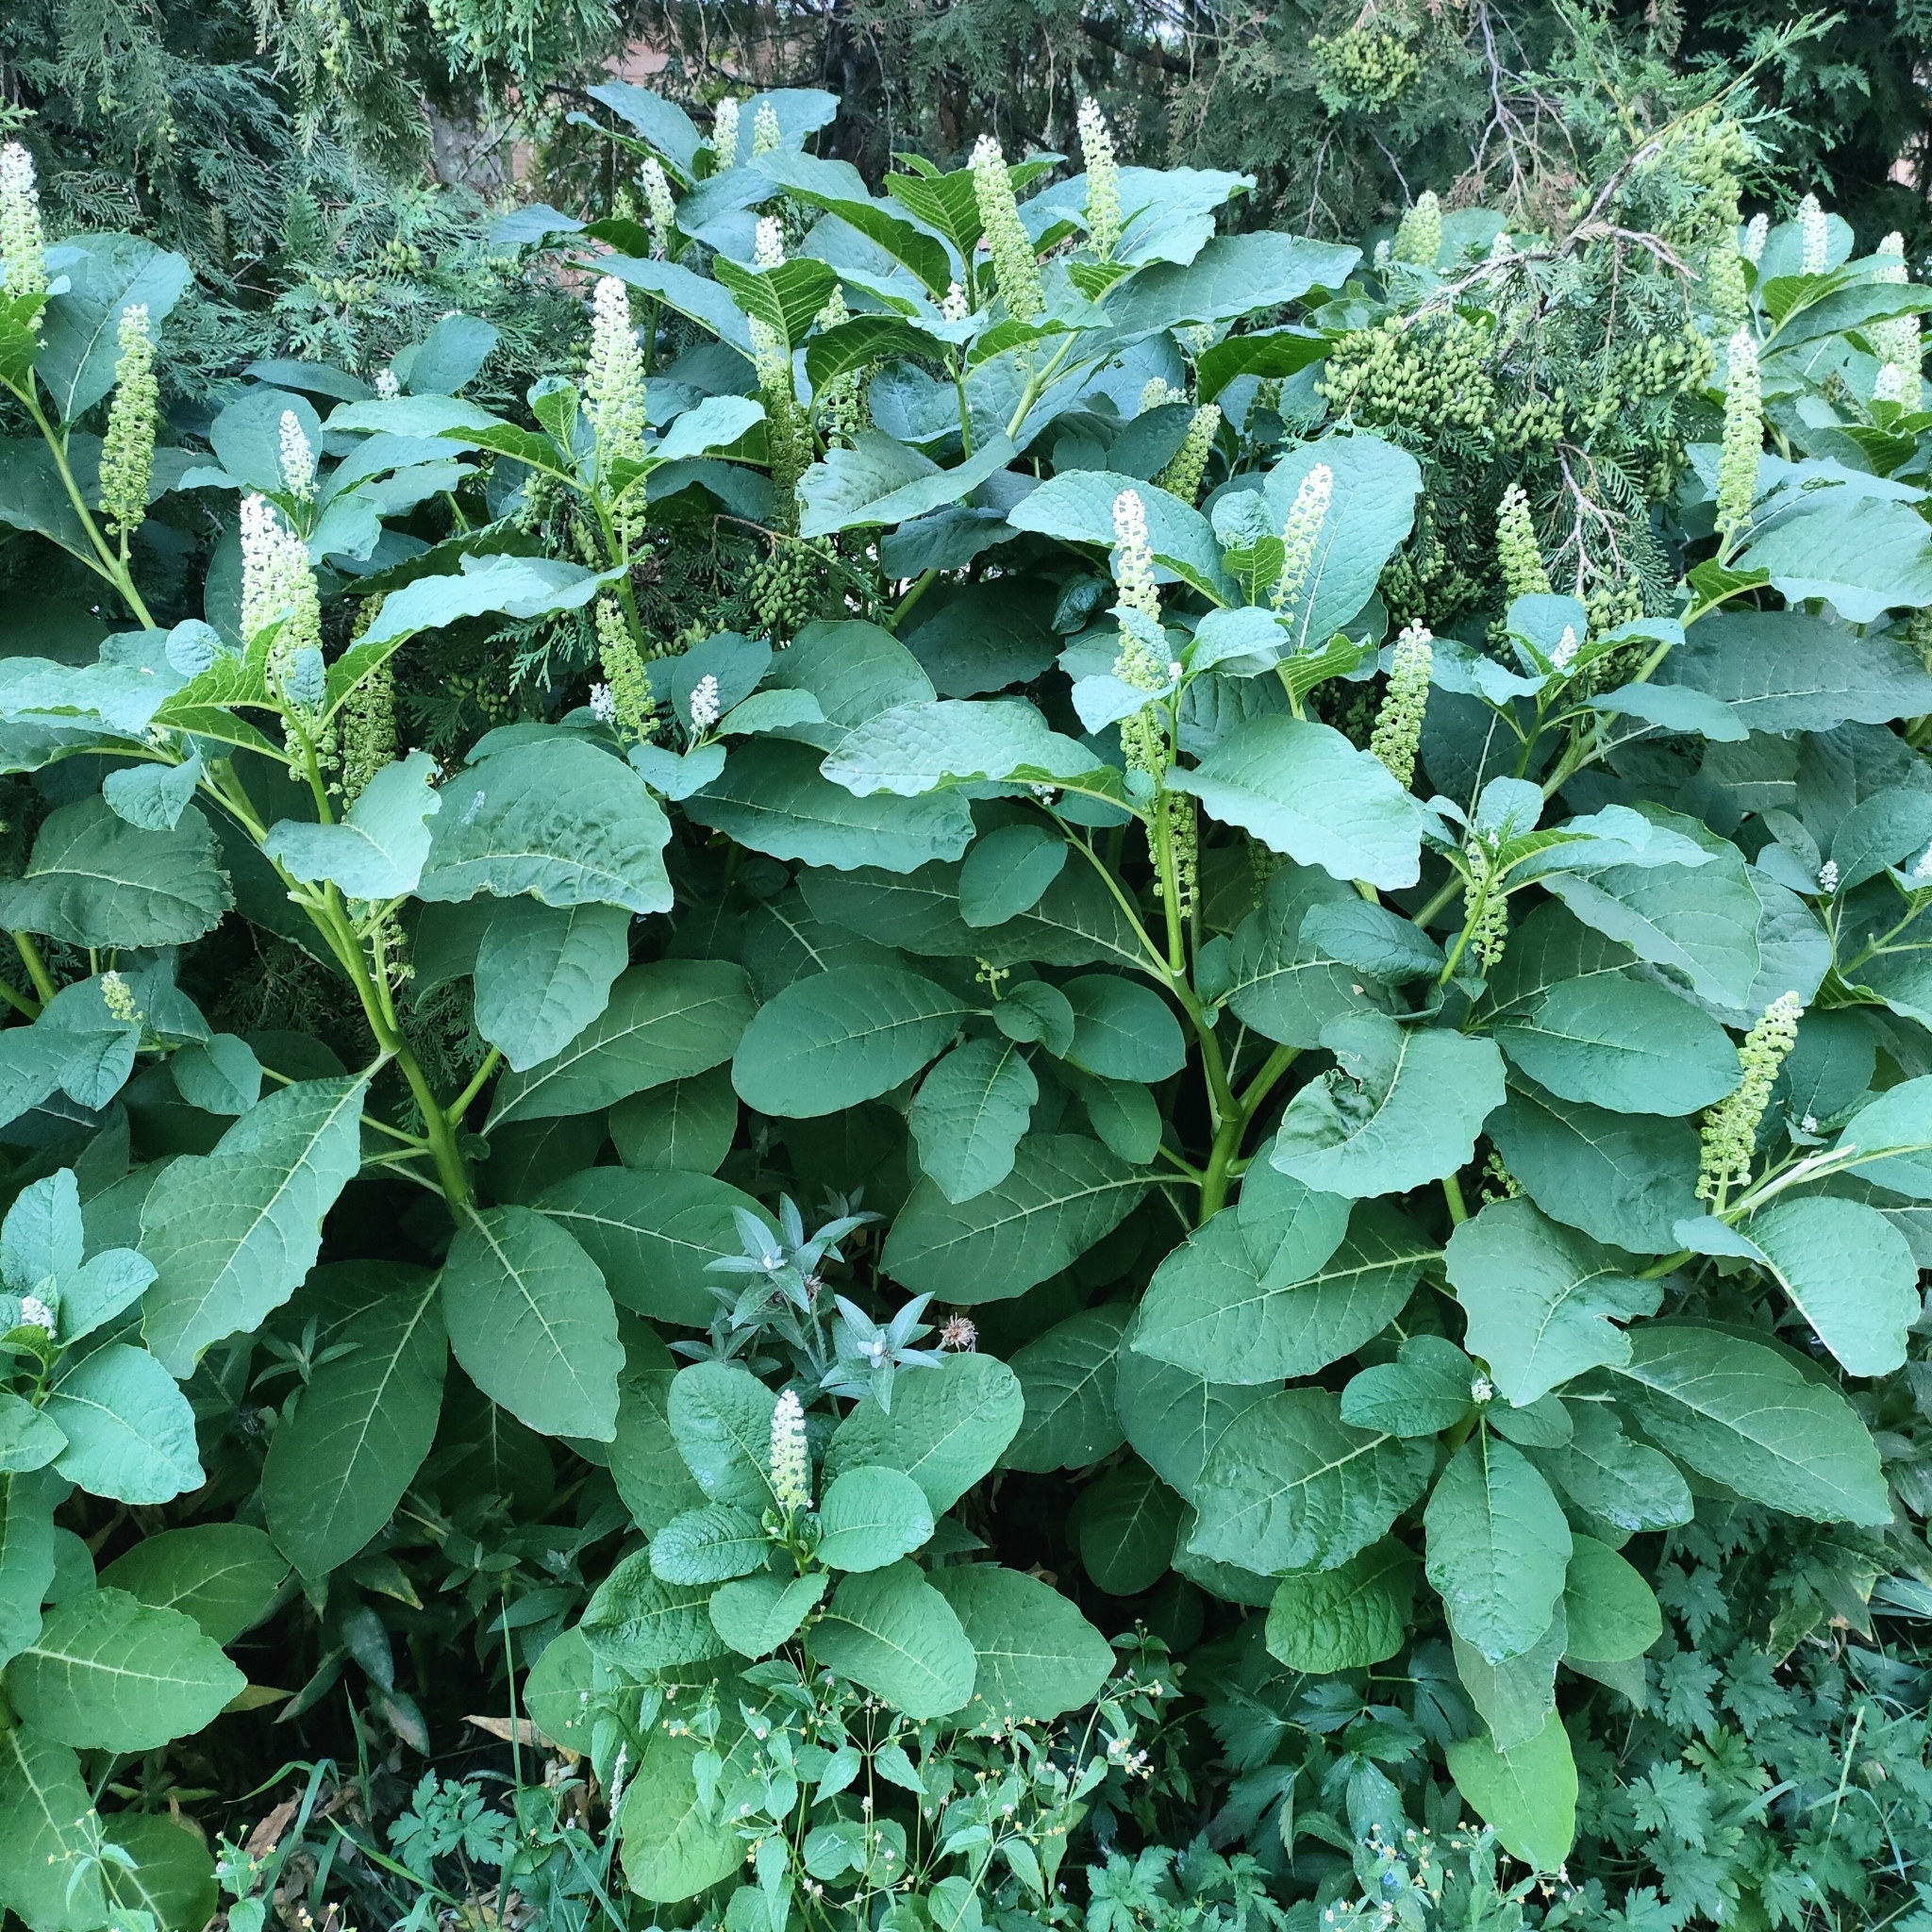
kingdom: Plantae
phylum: Tracheophyta
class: Magnoliopsida
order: Caryophyllales
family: Phytolaccaceae
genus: Phytolacca
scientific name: Phytolacca acinosa
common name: Indian pokeweed
